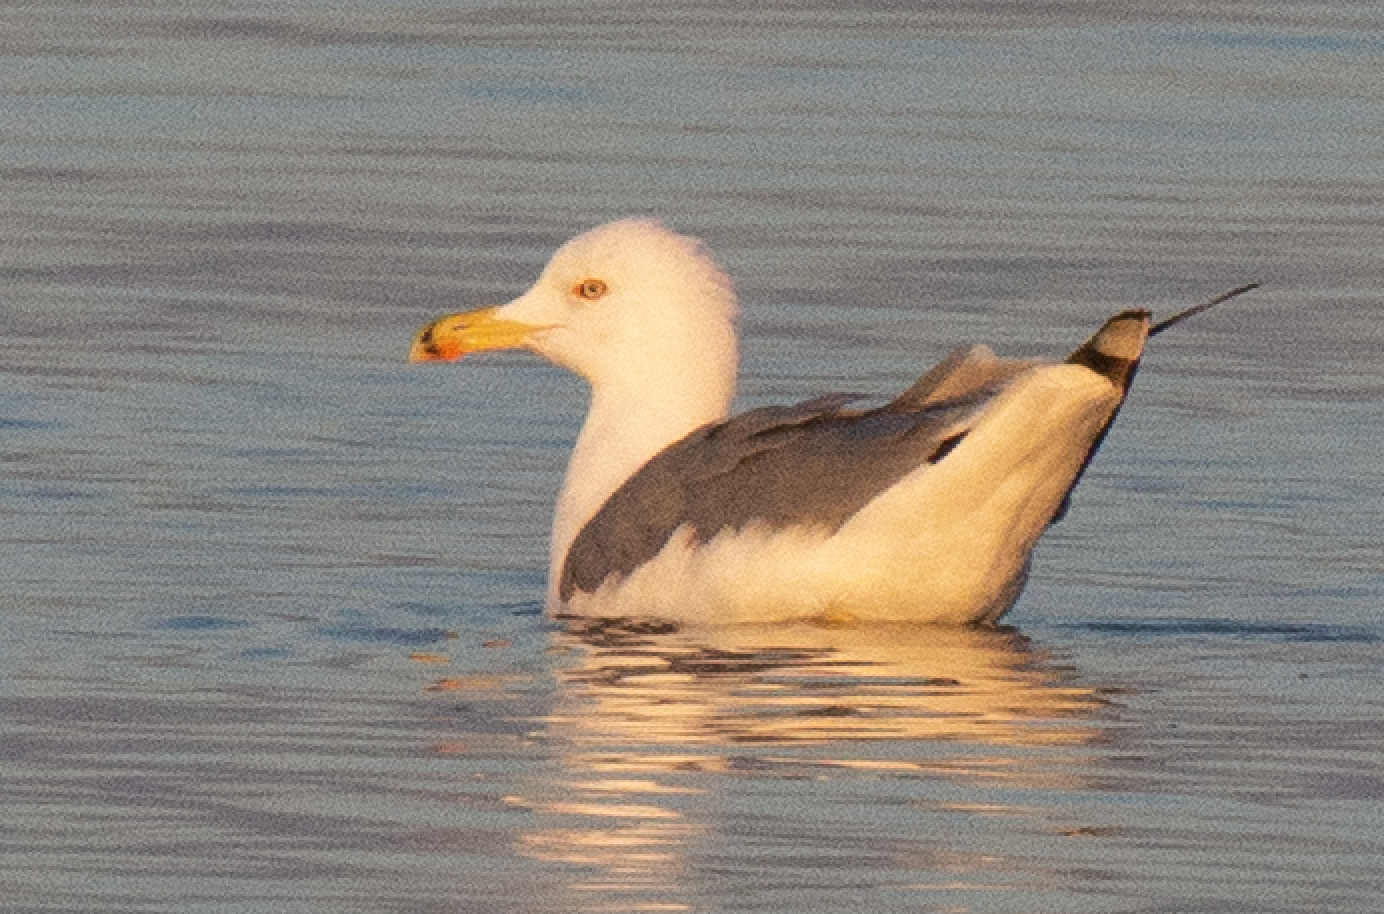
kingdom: Animalia
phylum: Chordata
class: Aves
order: Charadriiformes
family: Laridae
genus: Larus
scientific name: Larus michahellis
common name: Yellow-legged gull
